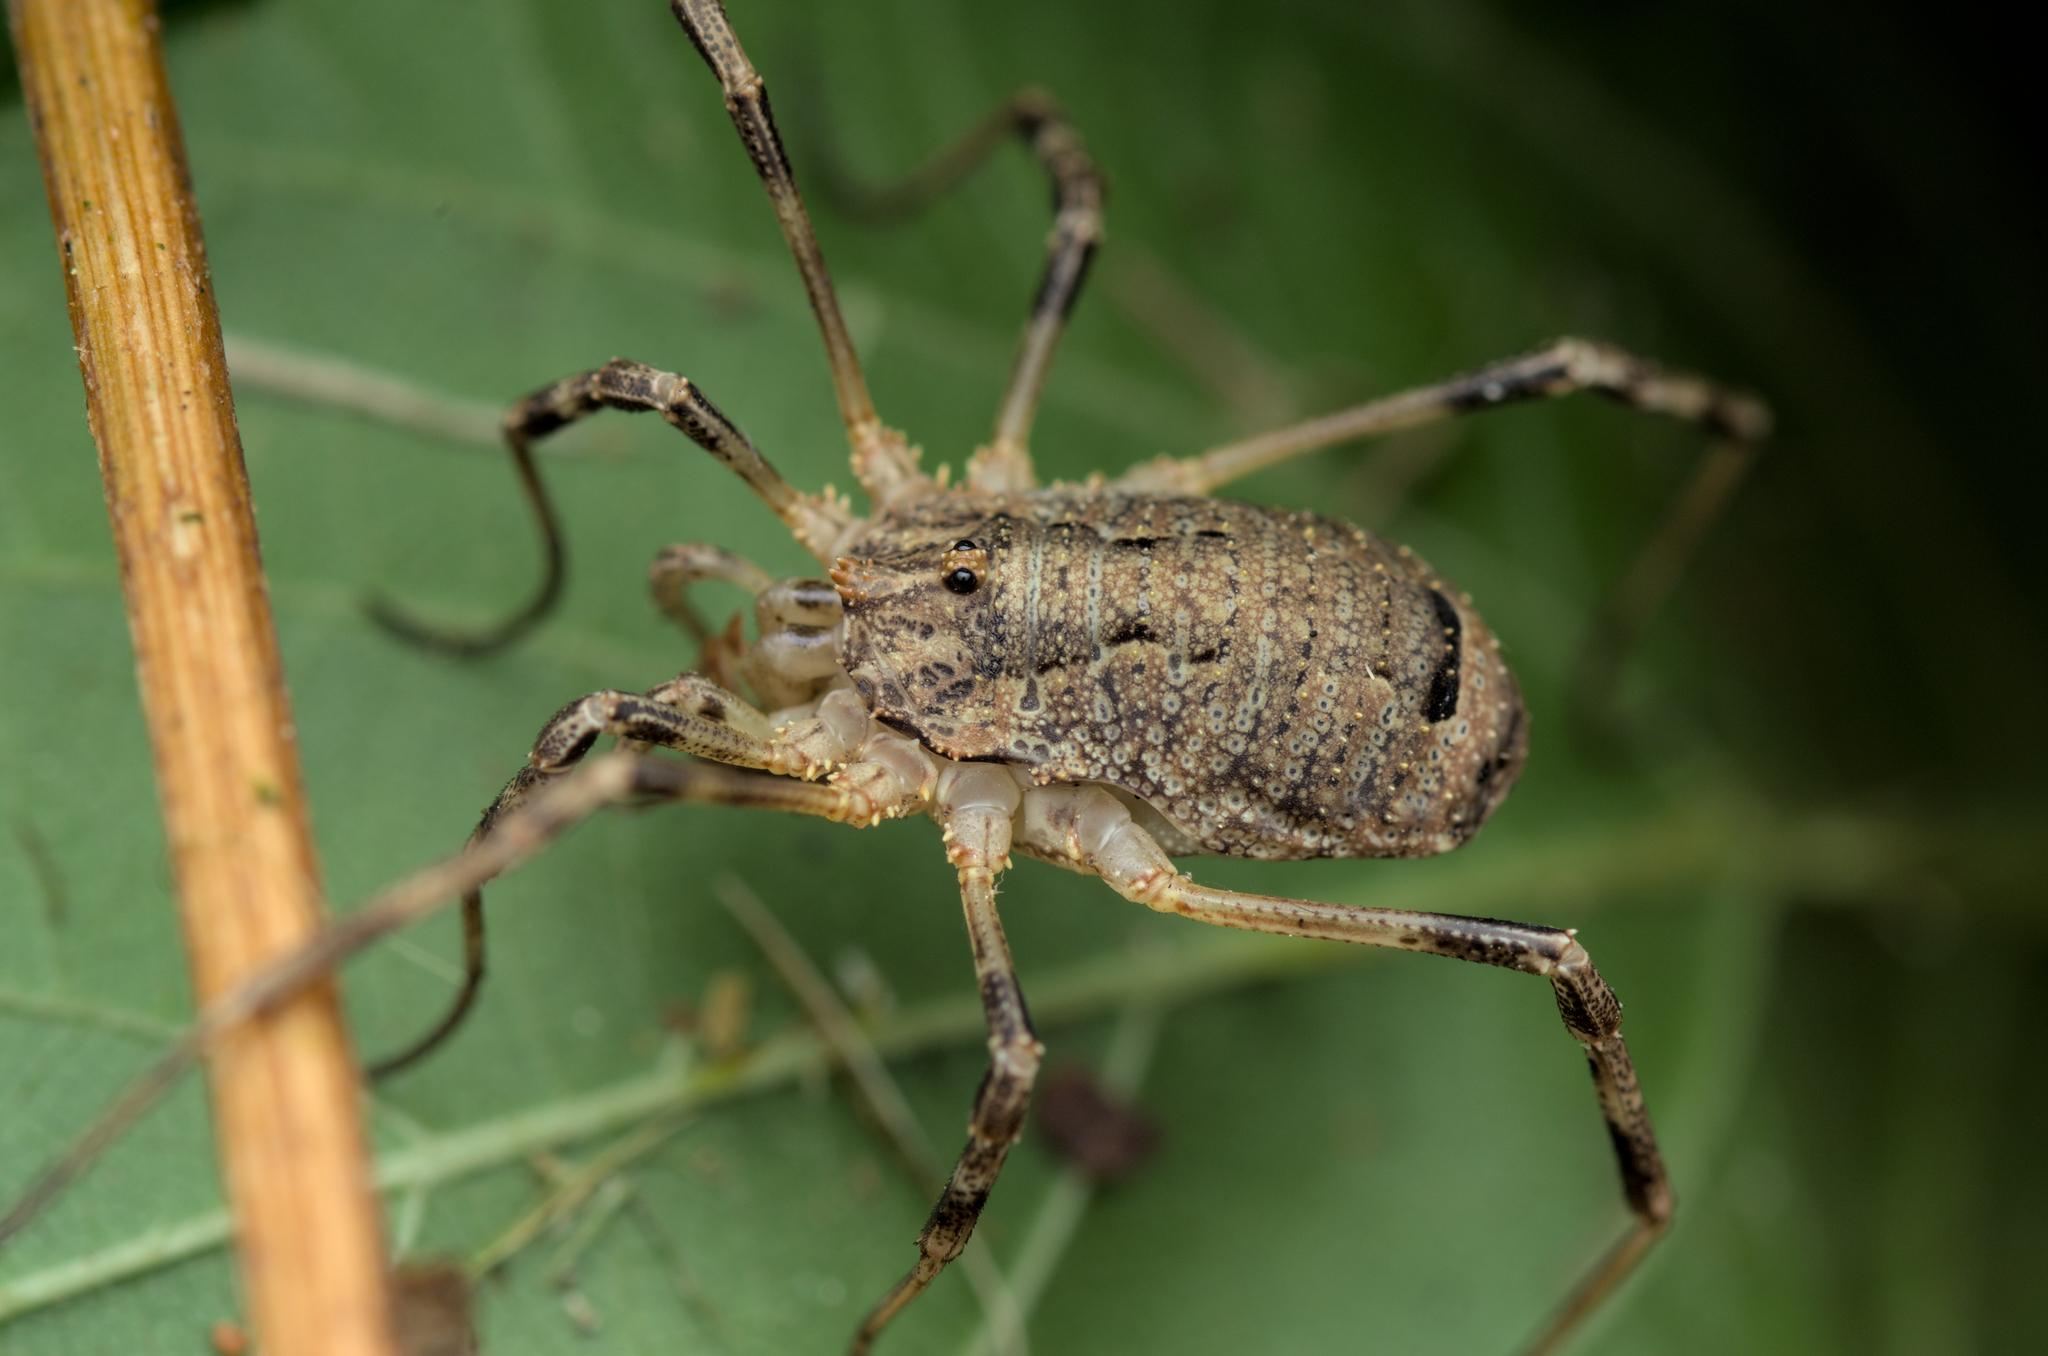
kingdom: Animalia
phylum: Arthropoda
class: Arachnida
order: Opiliones
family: Phalangiidae
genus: Odiellus
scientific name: Odiellus spinosus
